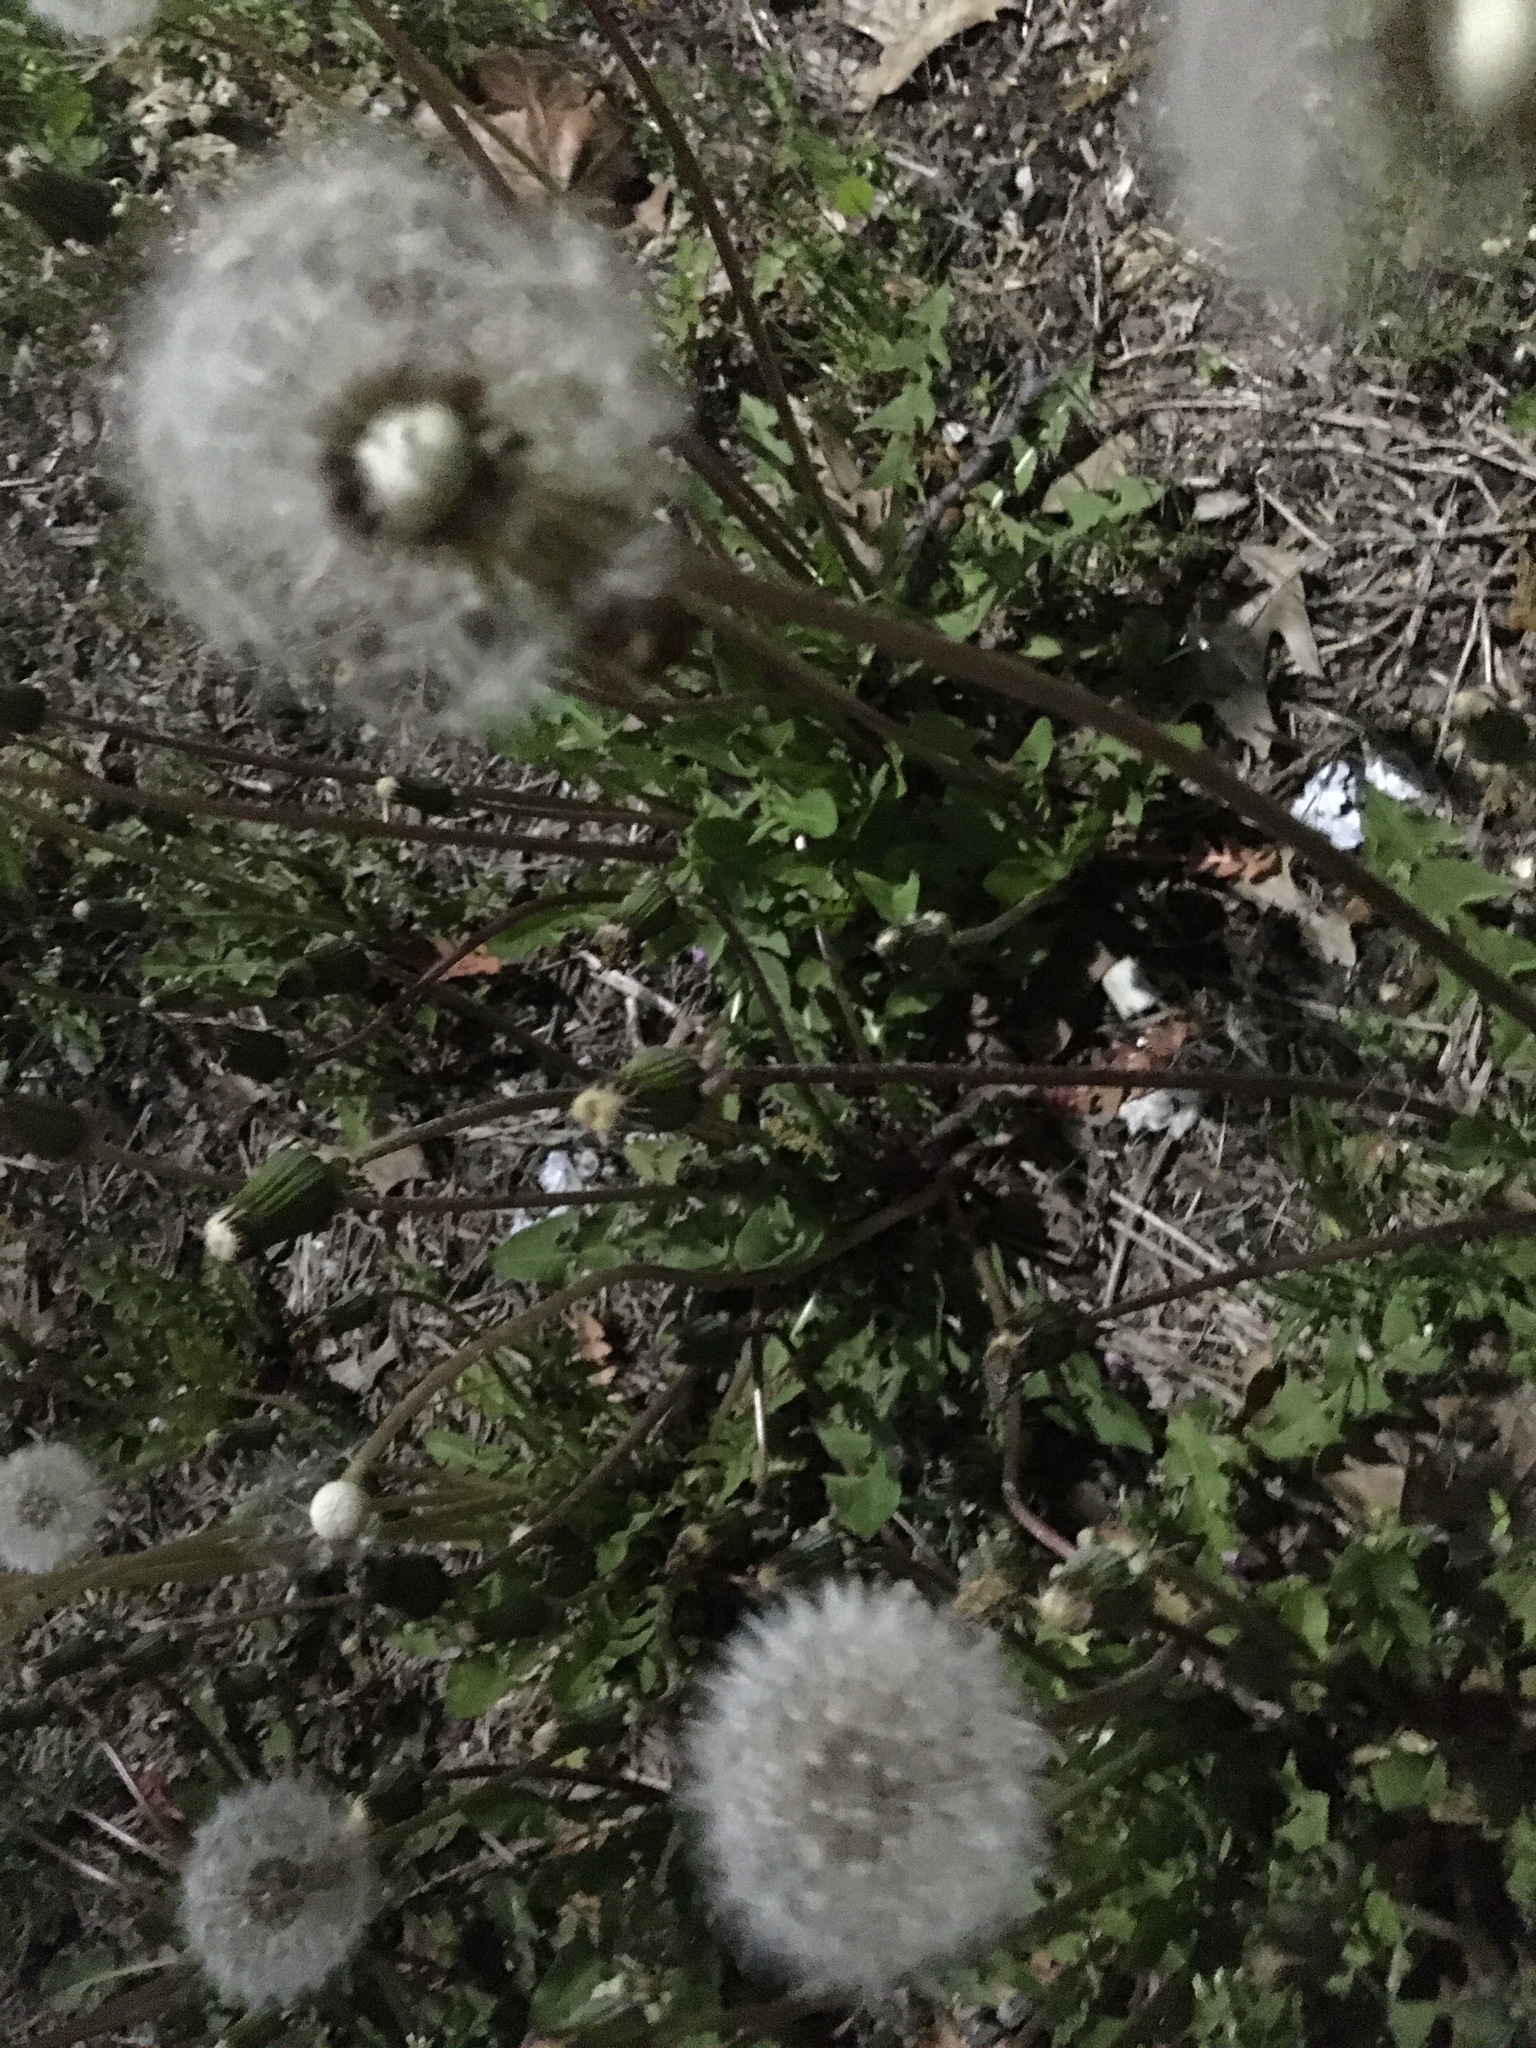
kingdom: Plantae
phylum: Tracheophyta
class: Magnoliopsida
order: Asterales
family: Asteraceae
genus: Taraxacum
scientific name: Taraxacum officinale
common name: Common dandelion
